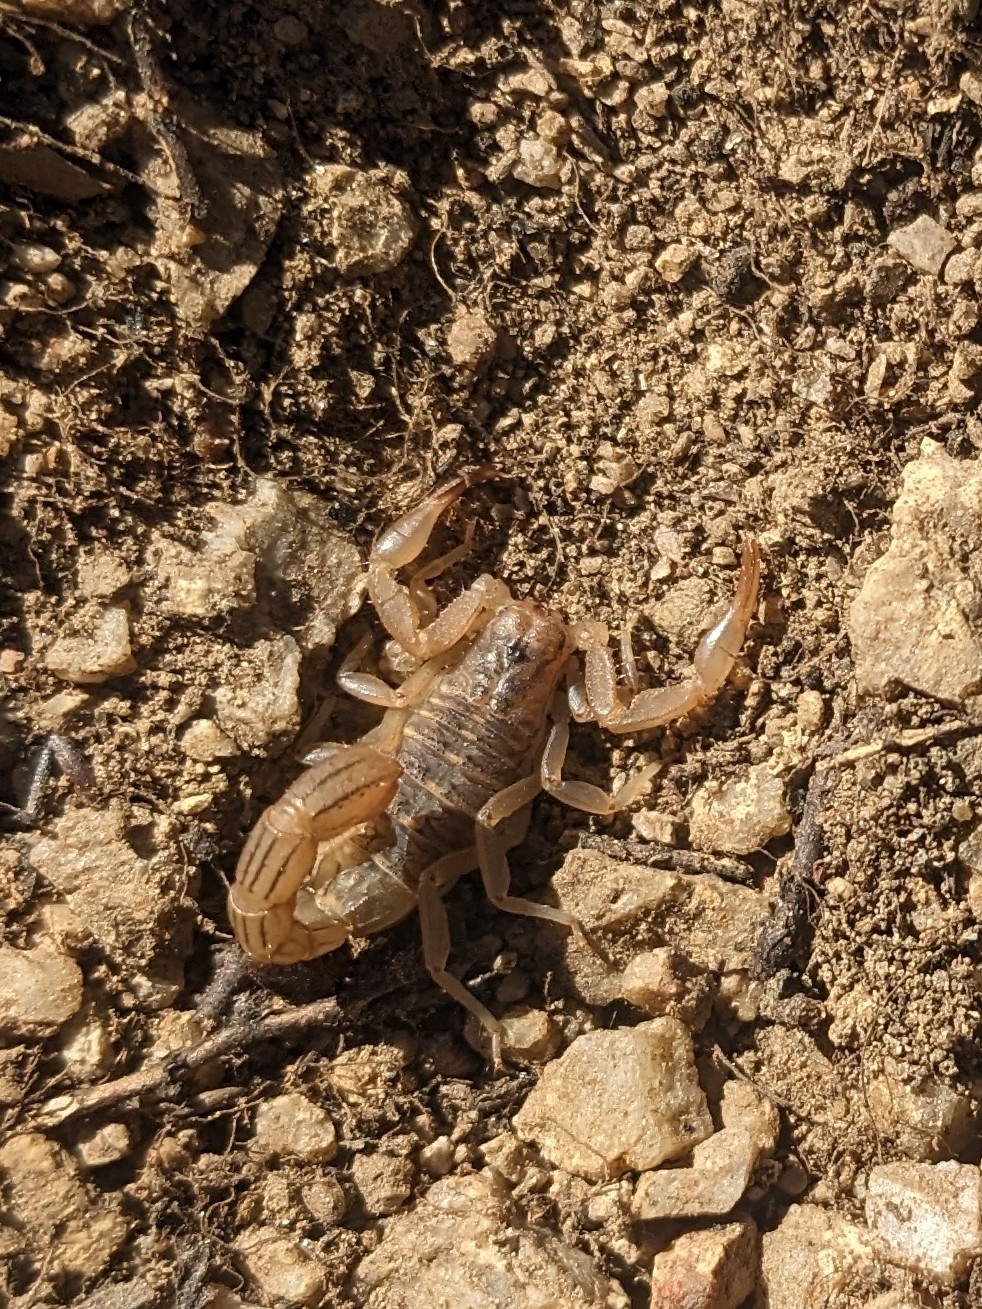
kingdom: Animalia
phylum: Arthropoda
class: Arachnida
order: Scorpiones
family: Vaejovidae
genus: Paravaejovis
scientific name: Paravaejovis spinigerus
